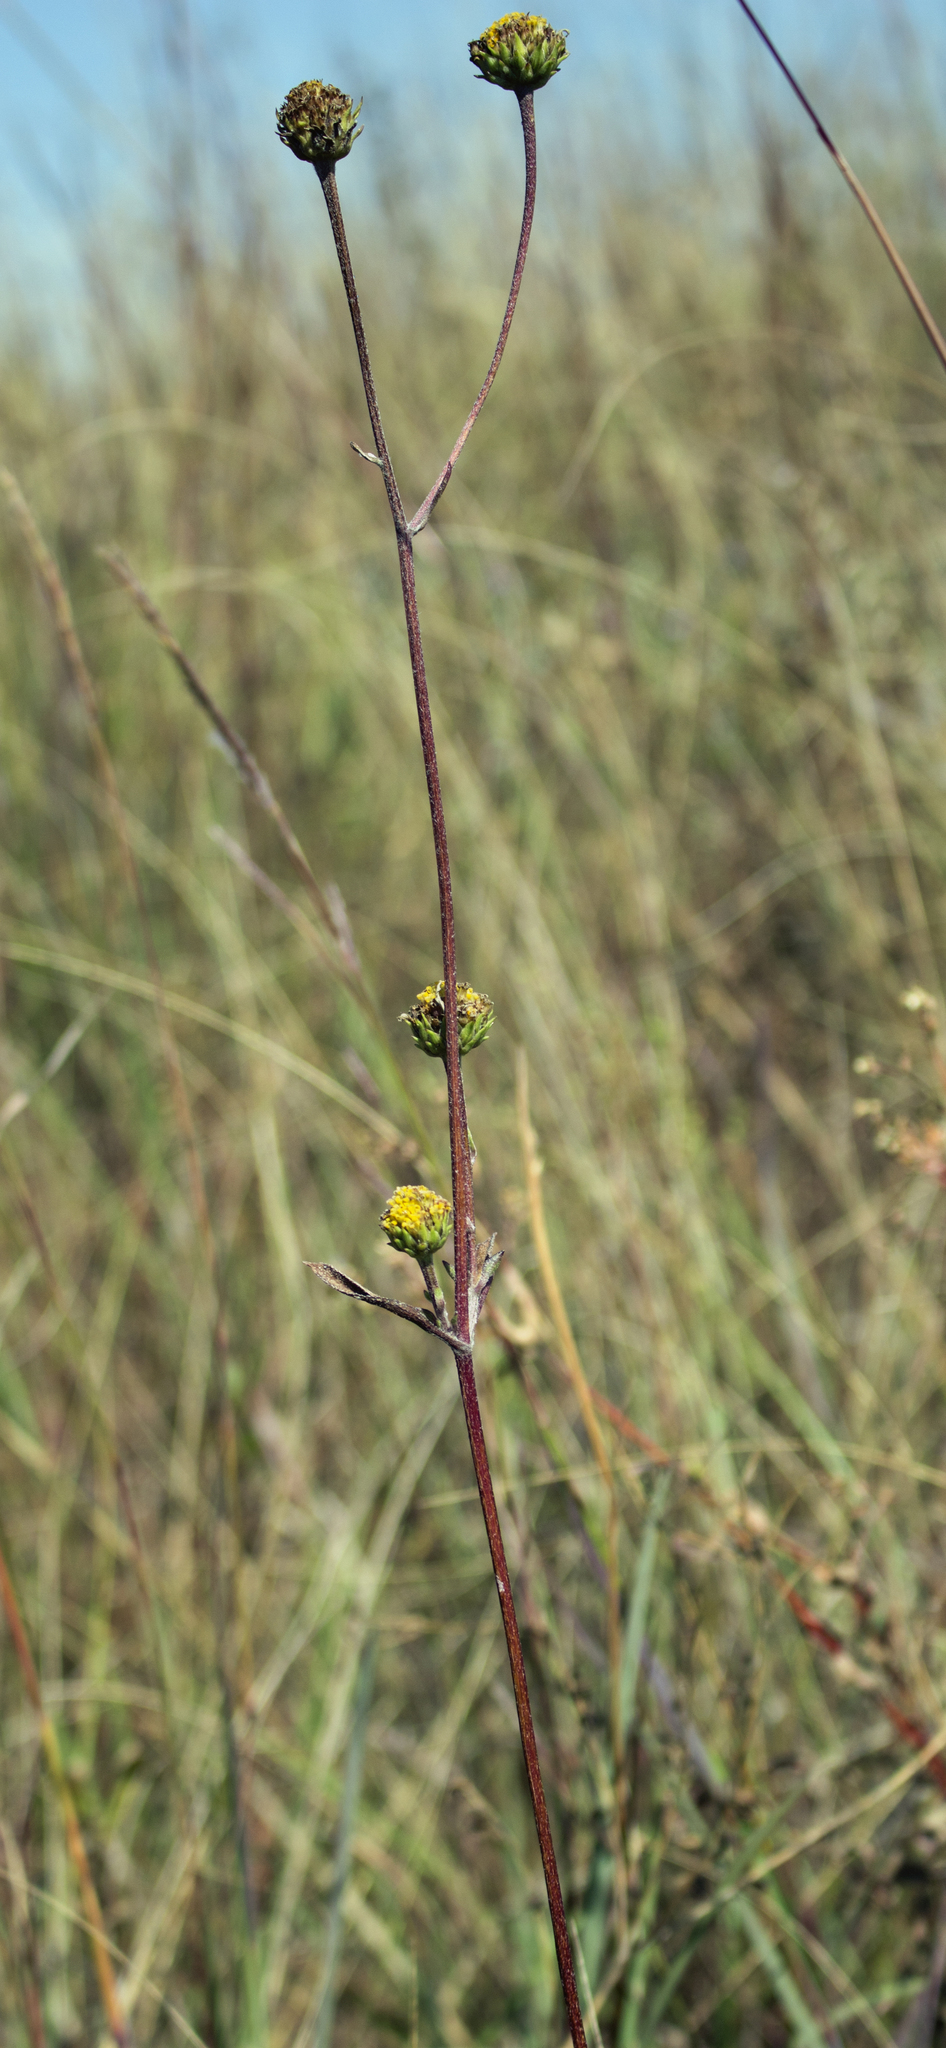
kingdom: Plantae
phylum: Tracheophyta
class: Magnoliopsida
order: Asterales
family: Asteraceae
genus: Helianthus
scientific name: Helianthus occidentalis
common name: Western sunflower
